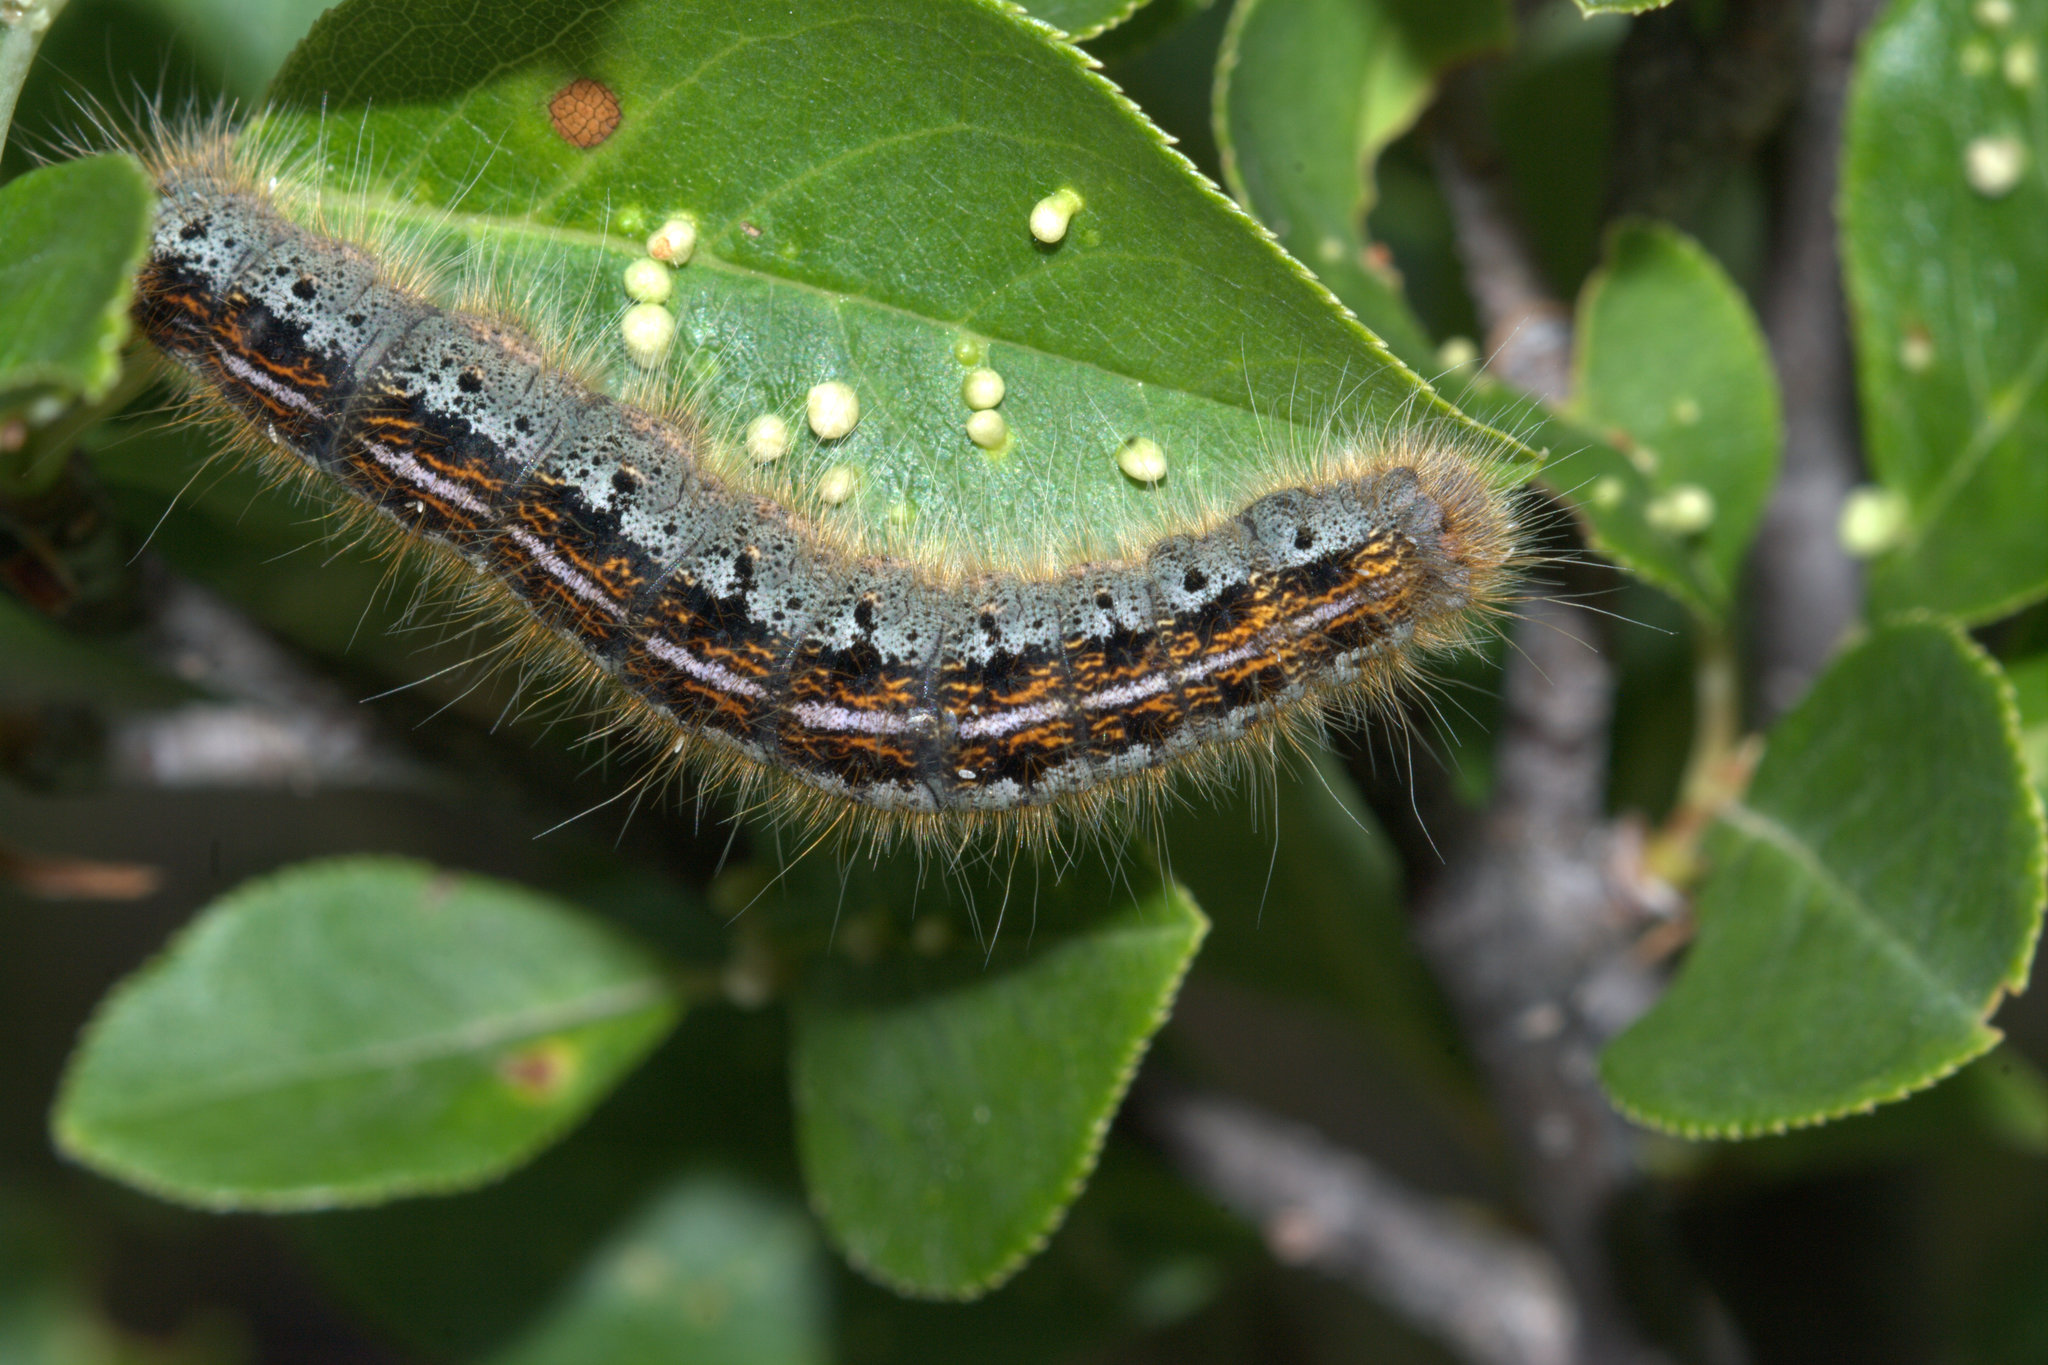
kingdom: Animalia
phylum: Arthropoda
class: Insecta
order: Lepidoptera
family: Lasiocampidae
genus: Malacosoma
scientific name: Malacosoma californica
